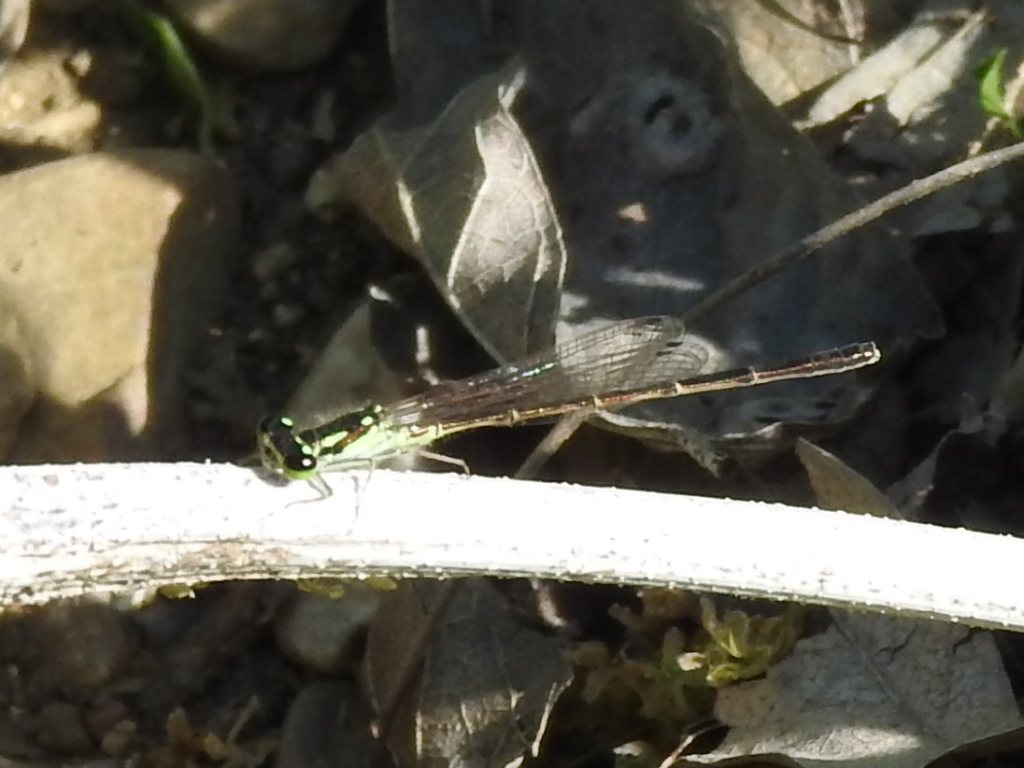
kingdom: Animalia
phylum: Arthropoda
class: Insecta
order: Odonata
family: Coenagrionidae
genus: Ischnura
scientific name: Ischnura posita
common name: Fragile forktail
